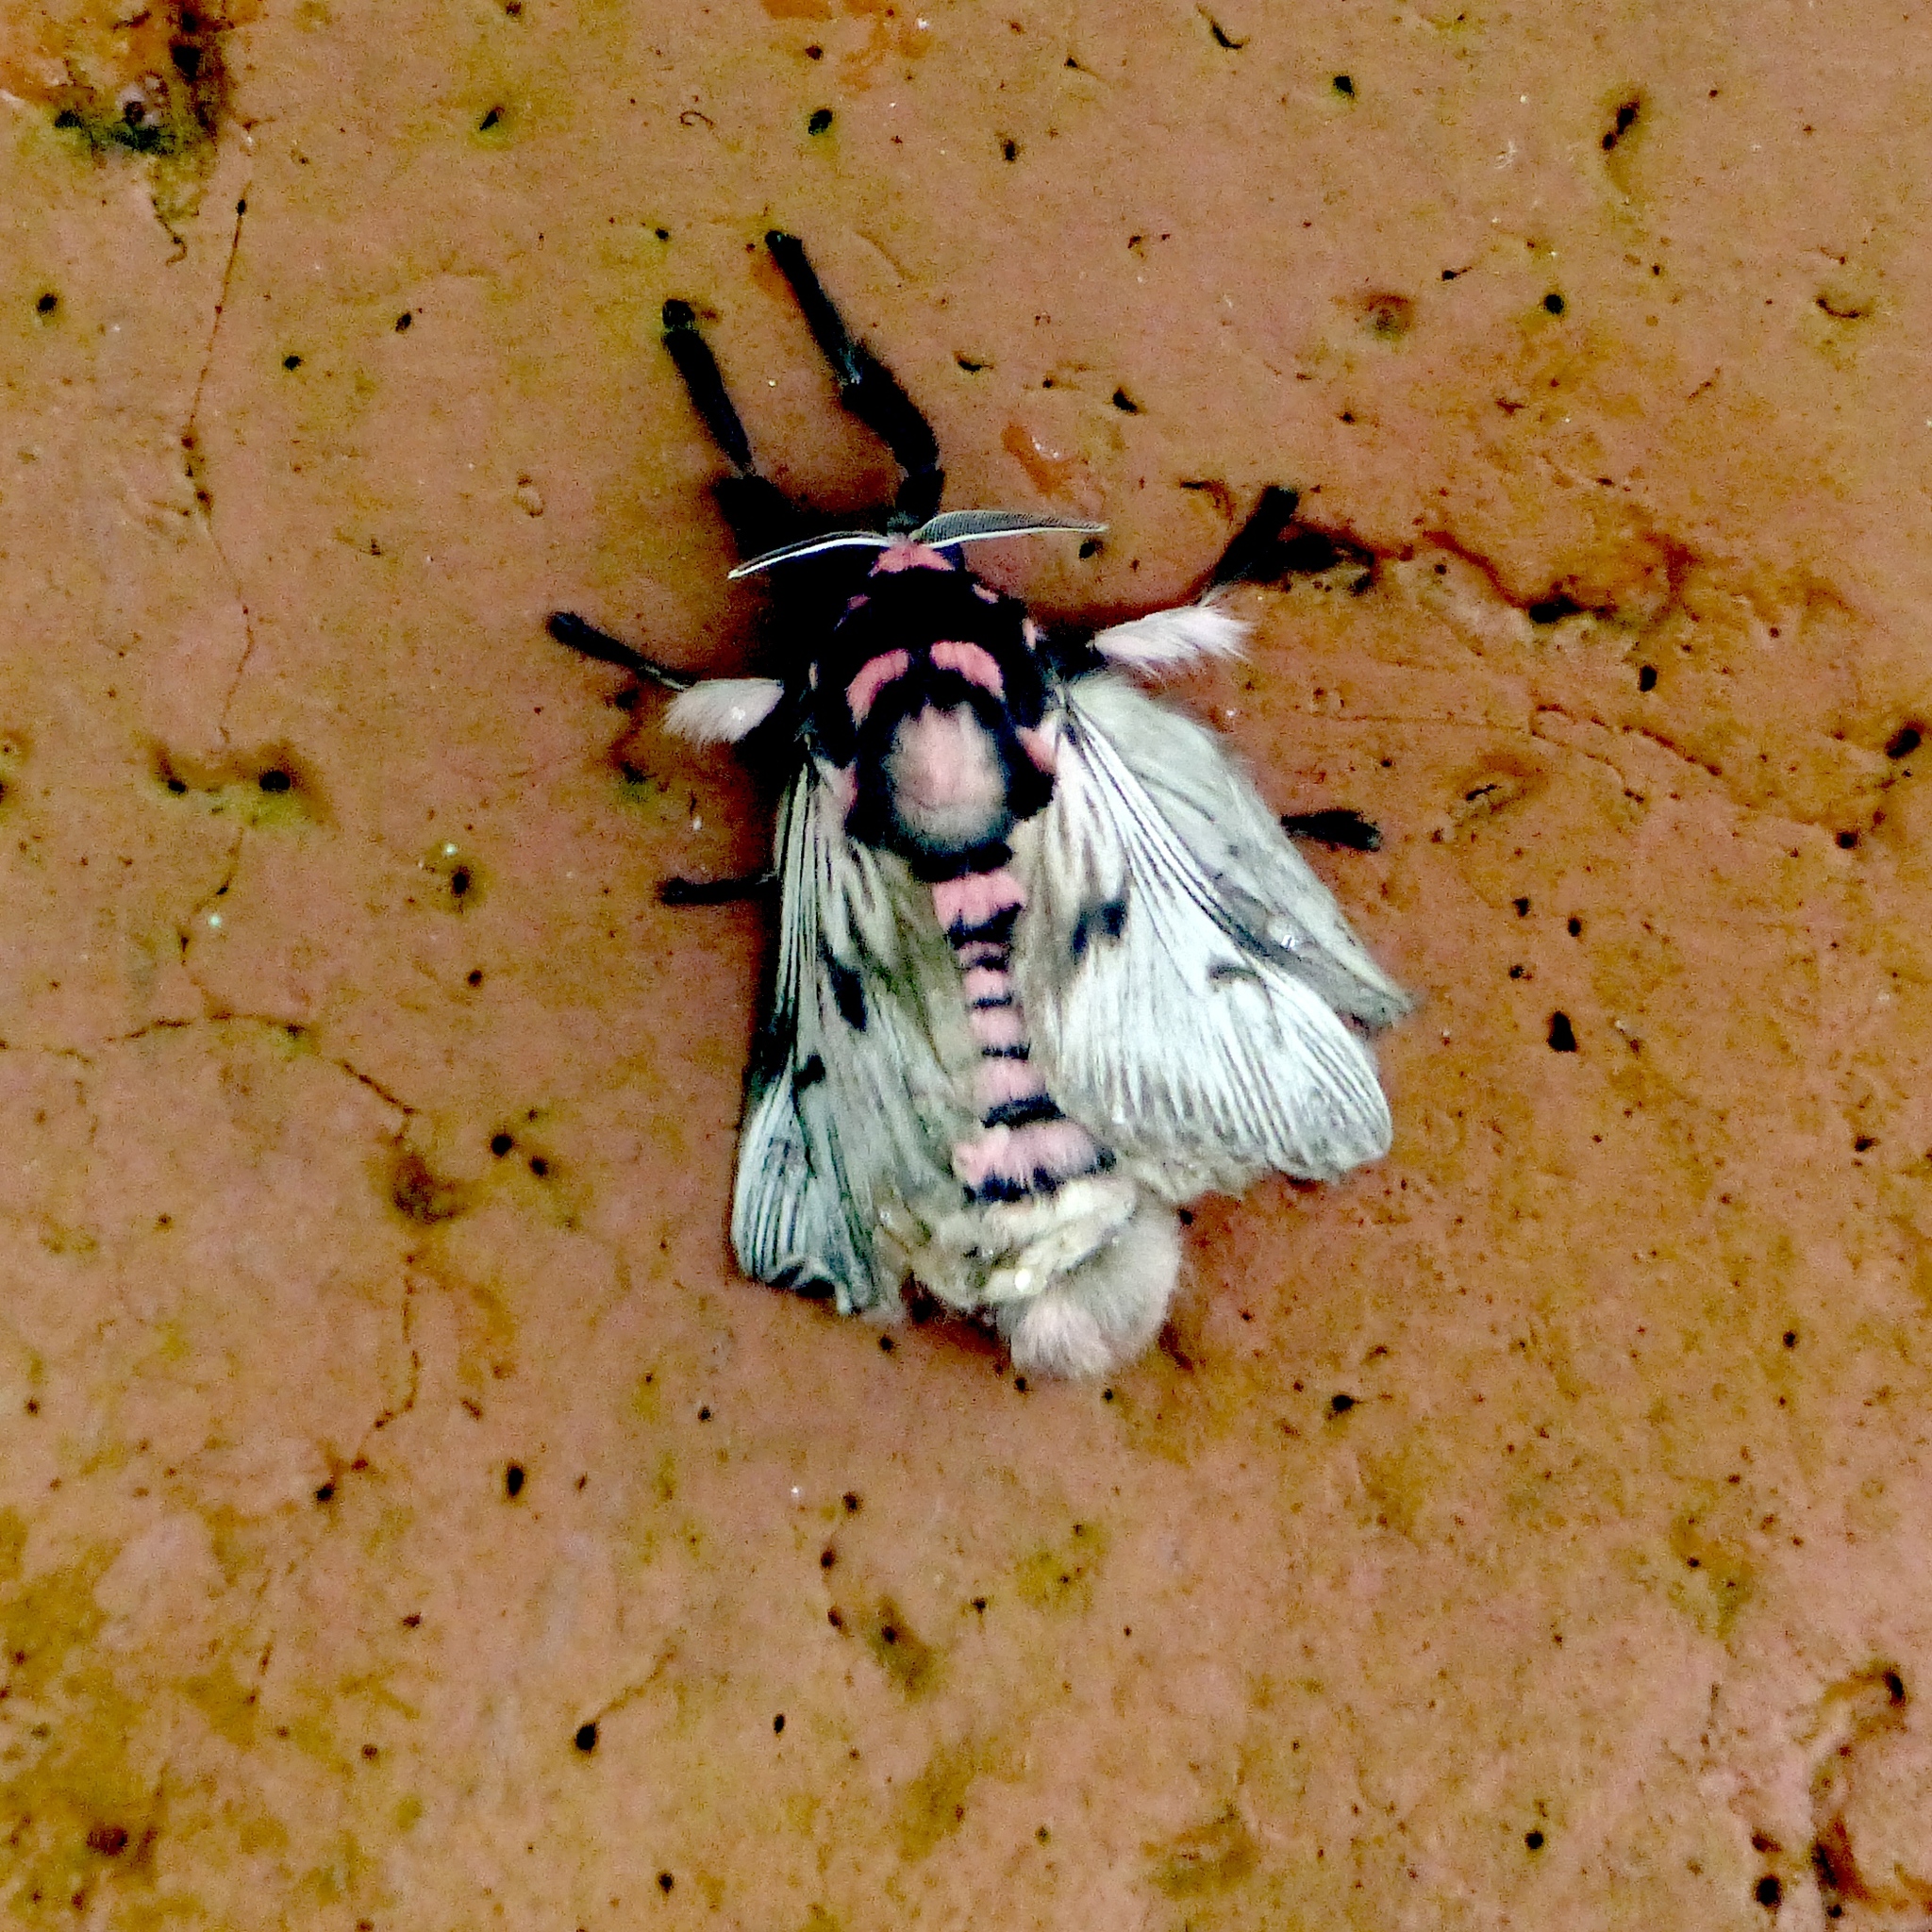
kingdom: Animalia
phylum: Arthropoda
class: Insecta
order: Lepidoptera
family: Megalopygidae
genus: Megalopyge
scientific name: Megalopyge lanata
